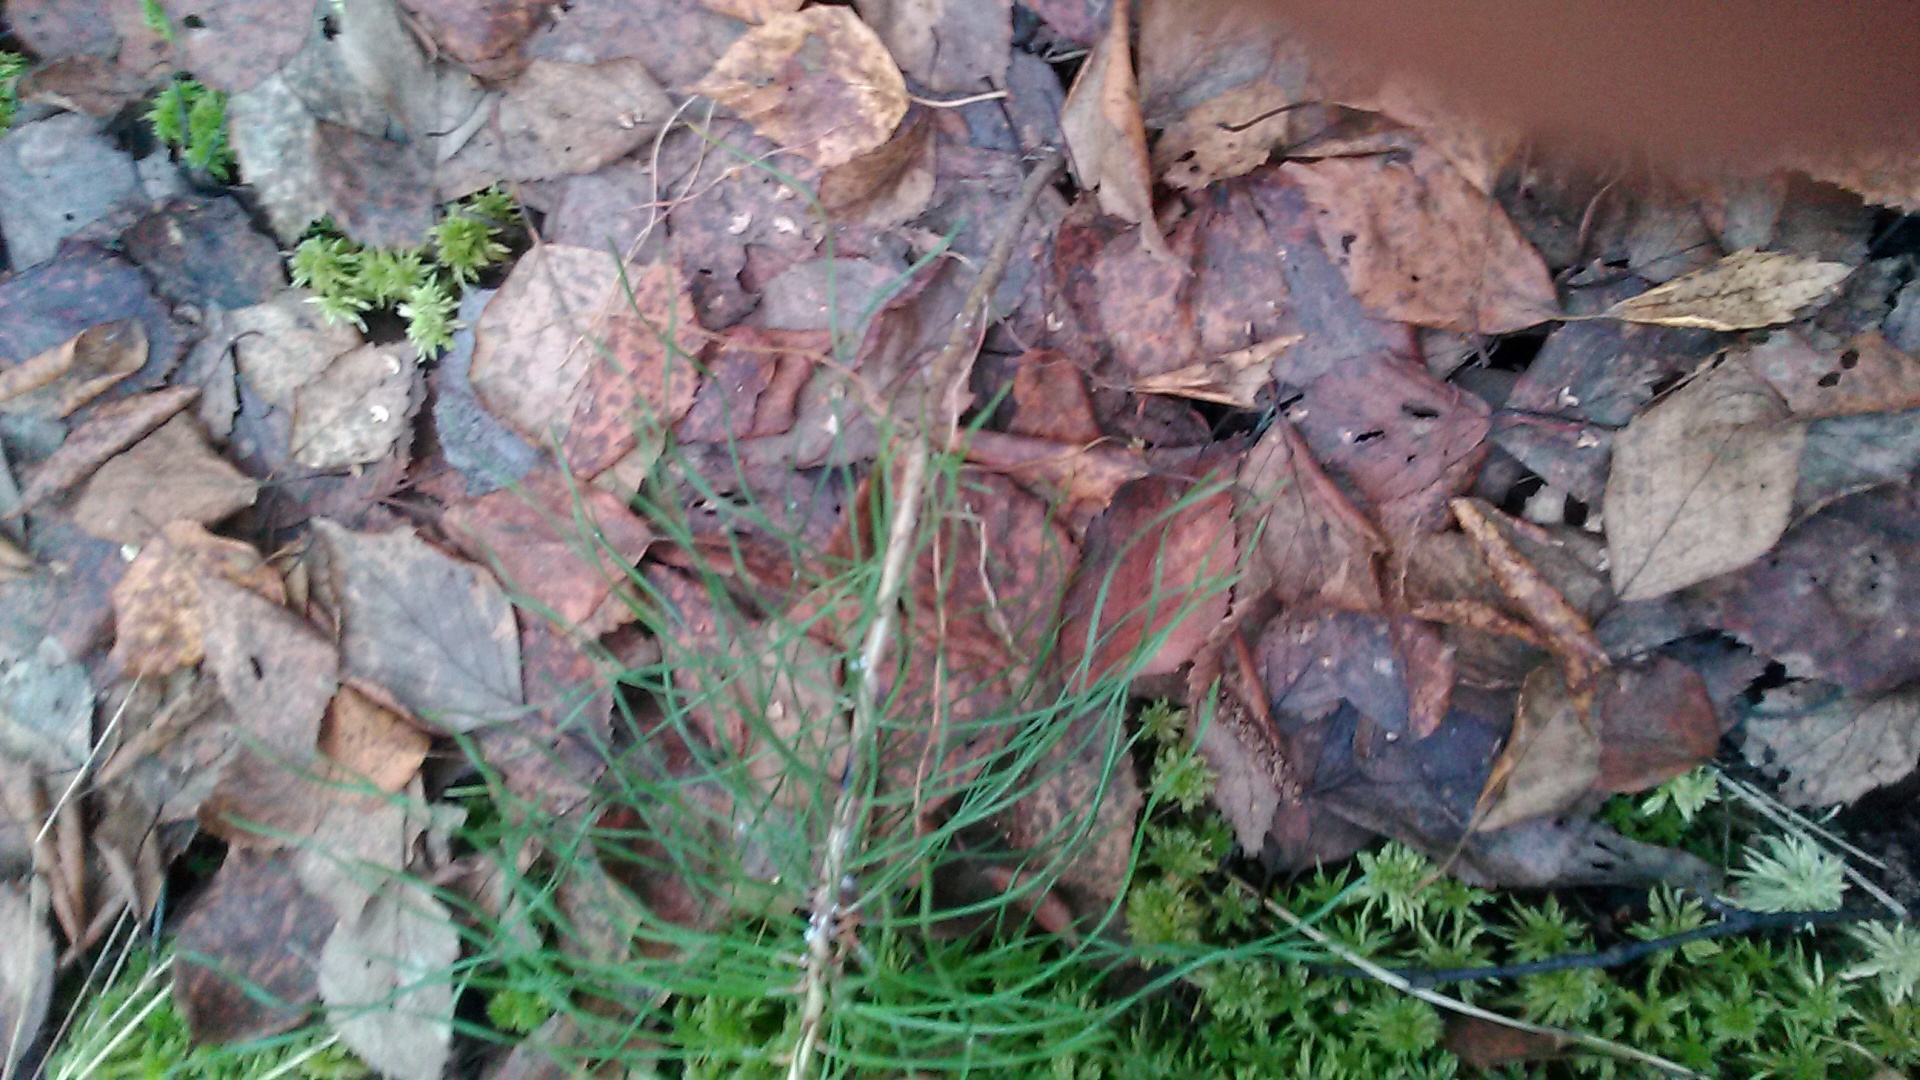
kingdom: Plantae
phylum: Tracheophyta
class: Pinopsida
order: Pinales
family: Pinaceae
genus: Pinus
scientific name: Pinus sylvestris
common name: Scots pine
